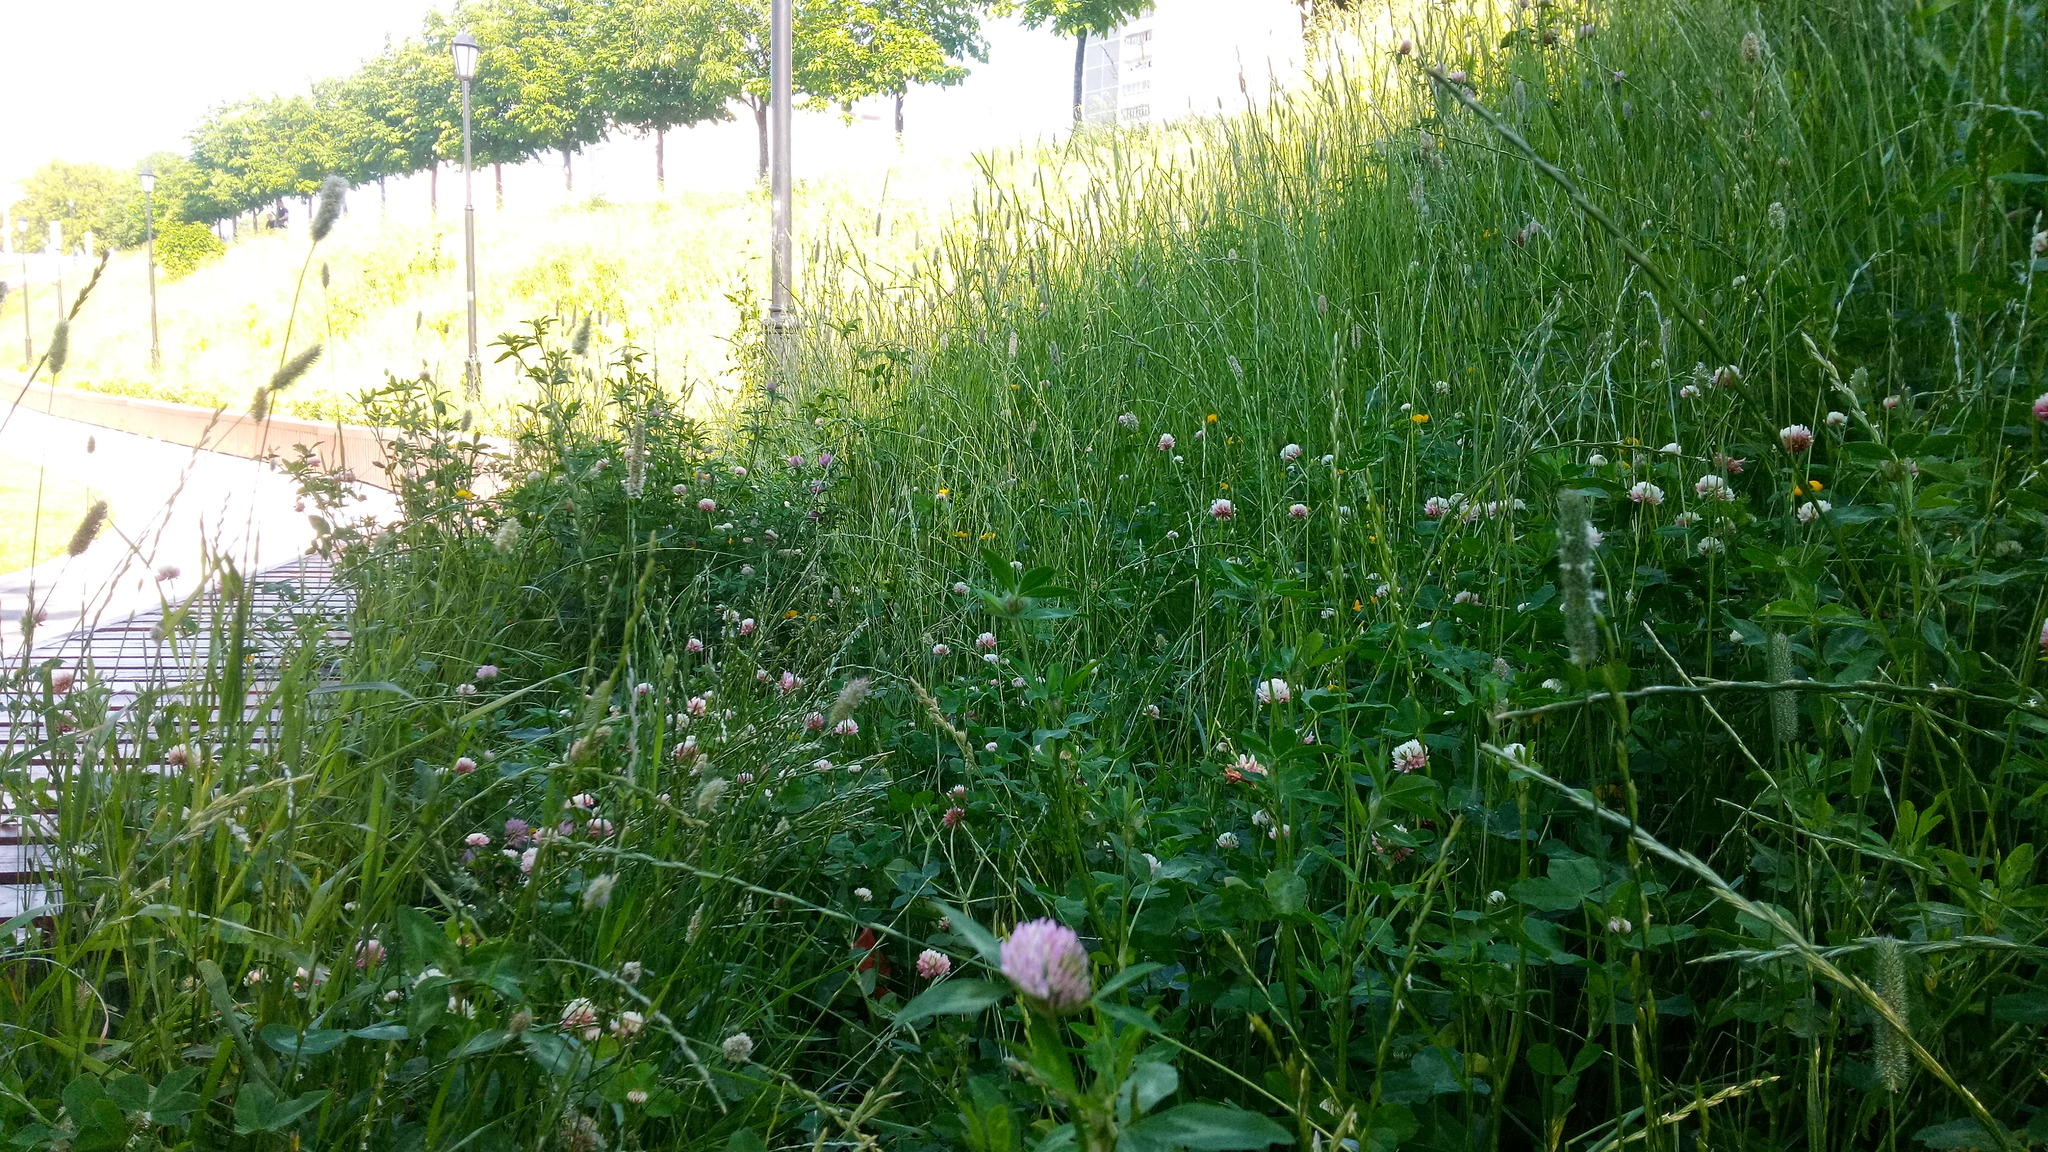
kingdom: Plantae
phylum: Tracheophyta
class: Magnoliopsida
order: Fabales
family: Fabaceae
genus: Trifolium
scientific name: Trifolium pratense
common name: Red clover
